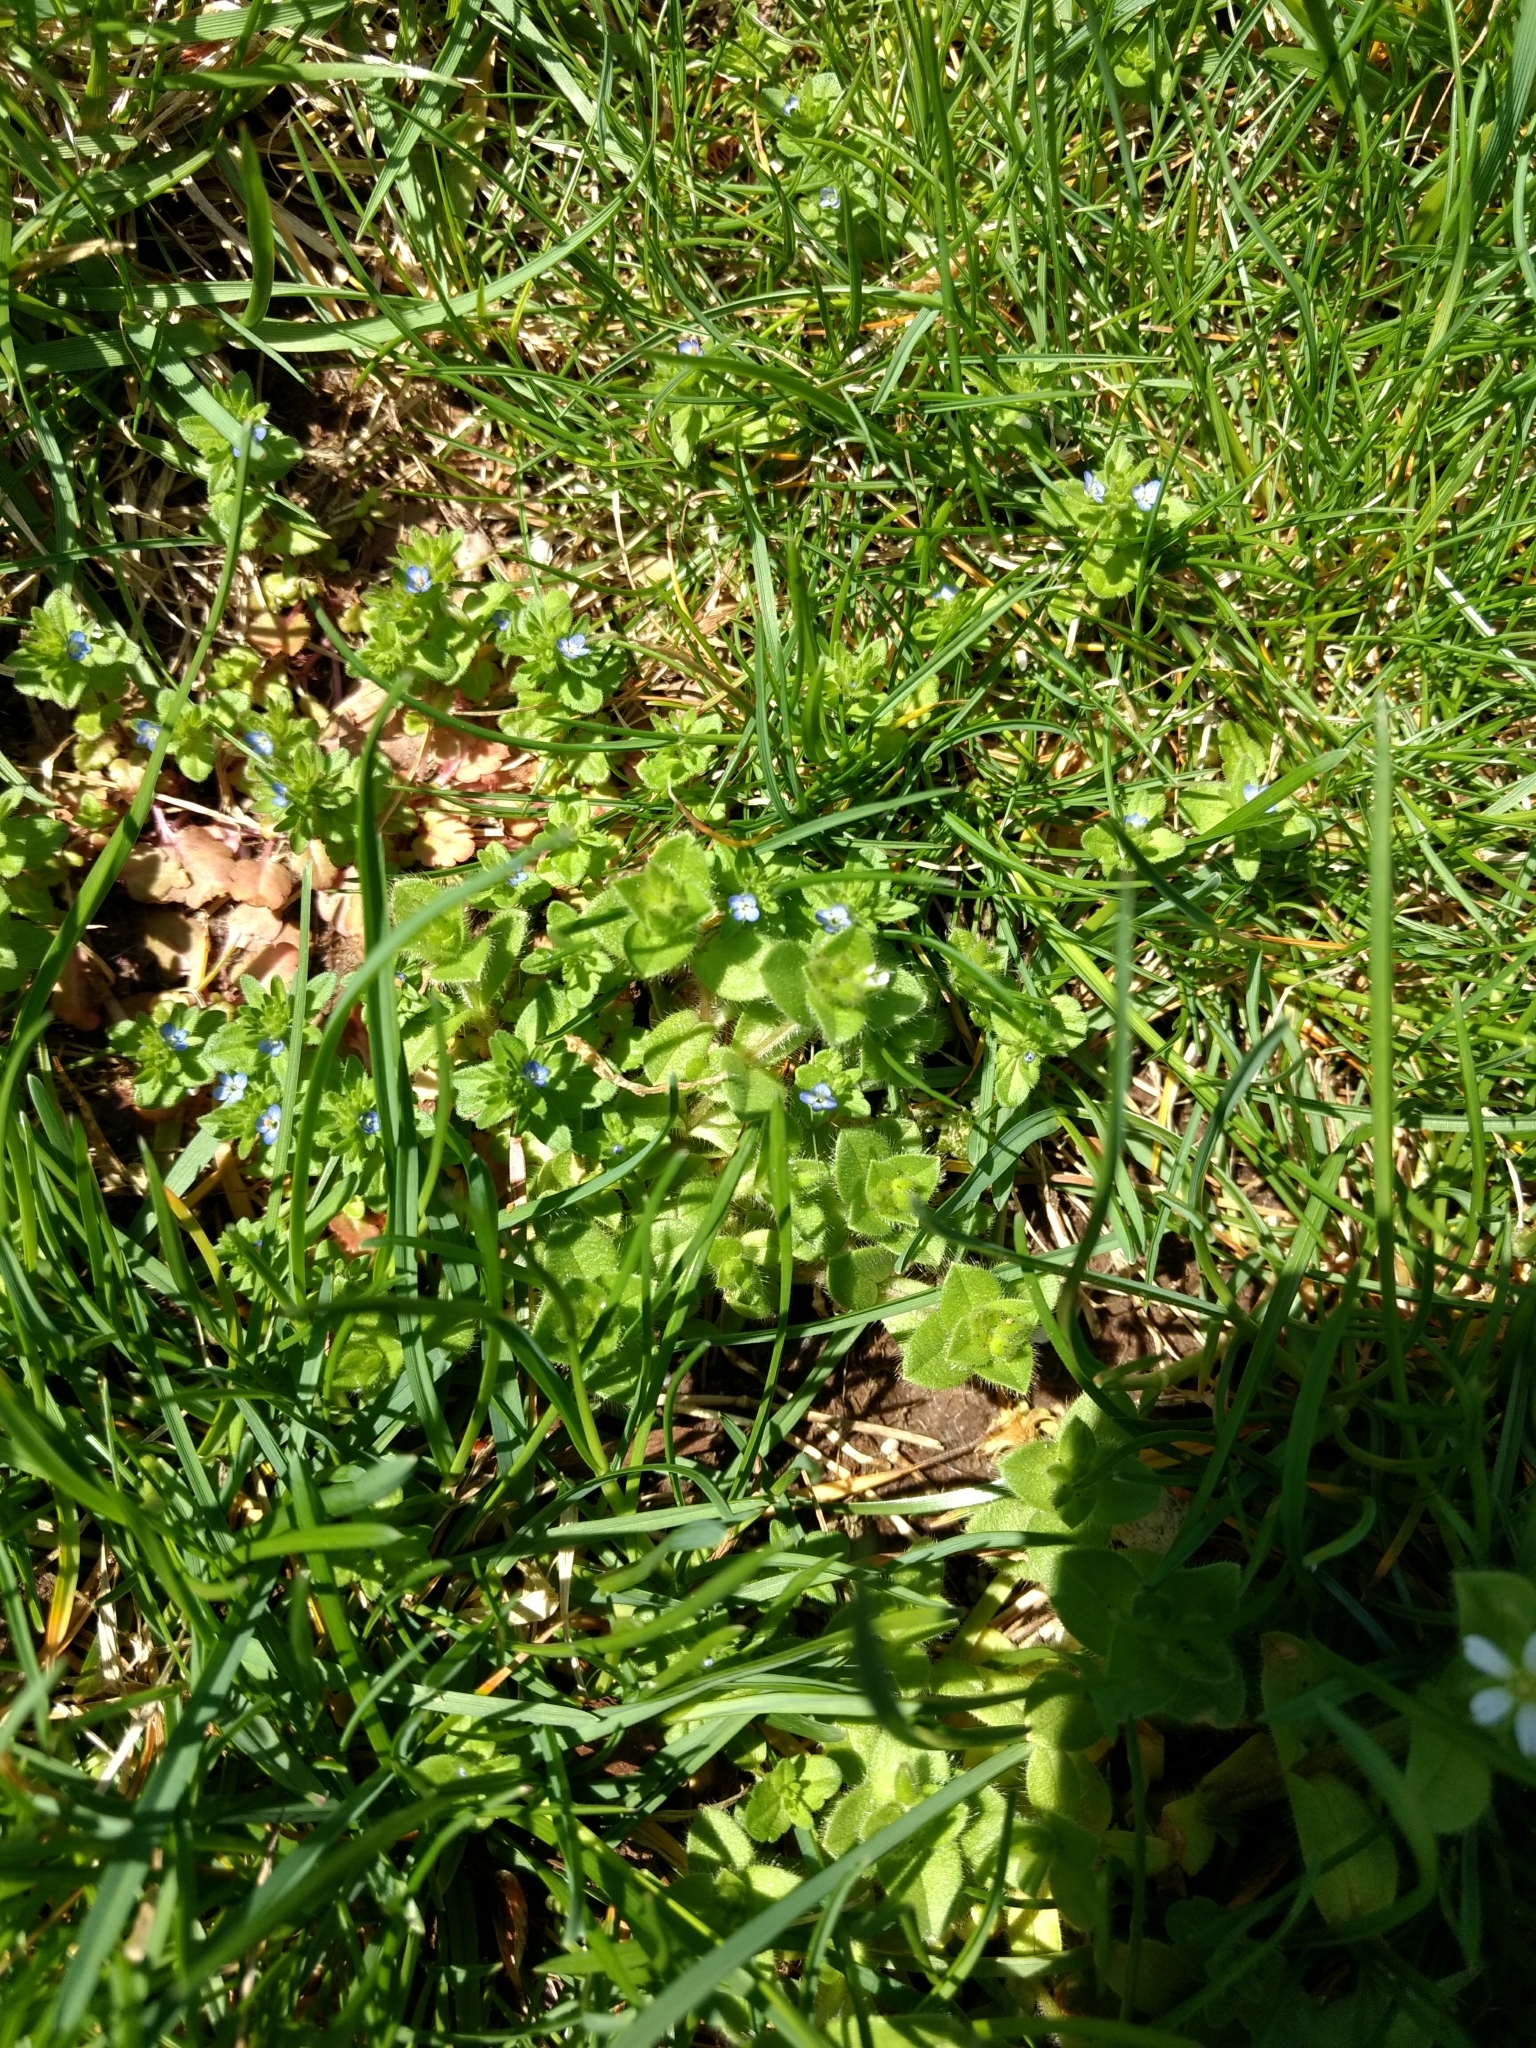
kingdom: Plantae
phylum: Tracheophyta
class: Magnoliopsida
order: Lamiales
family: Plantaginaceae
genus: Veronica
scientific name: Veronica arvensis
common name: Corn speedwell
